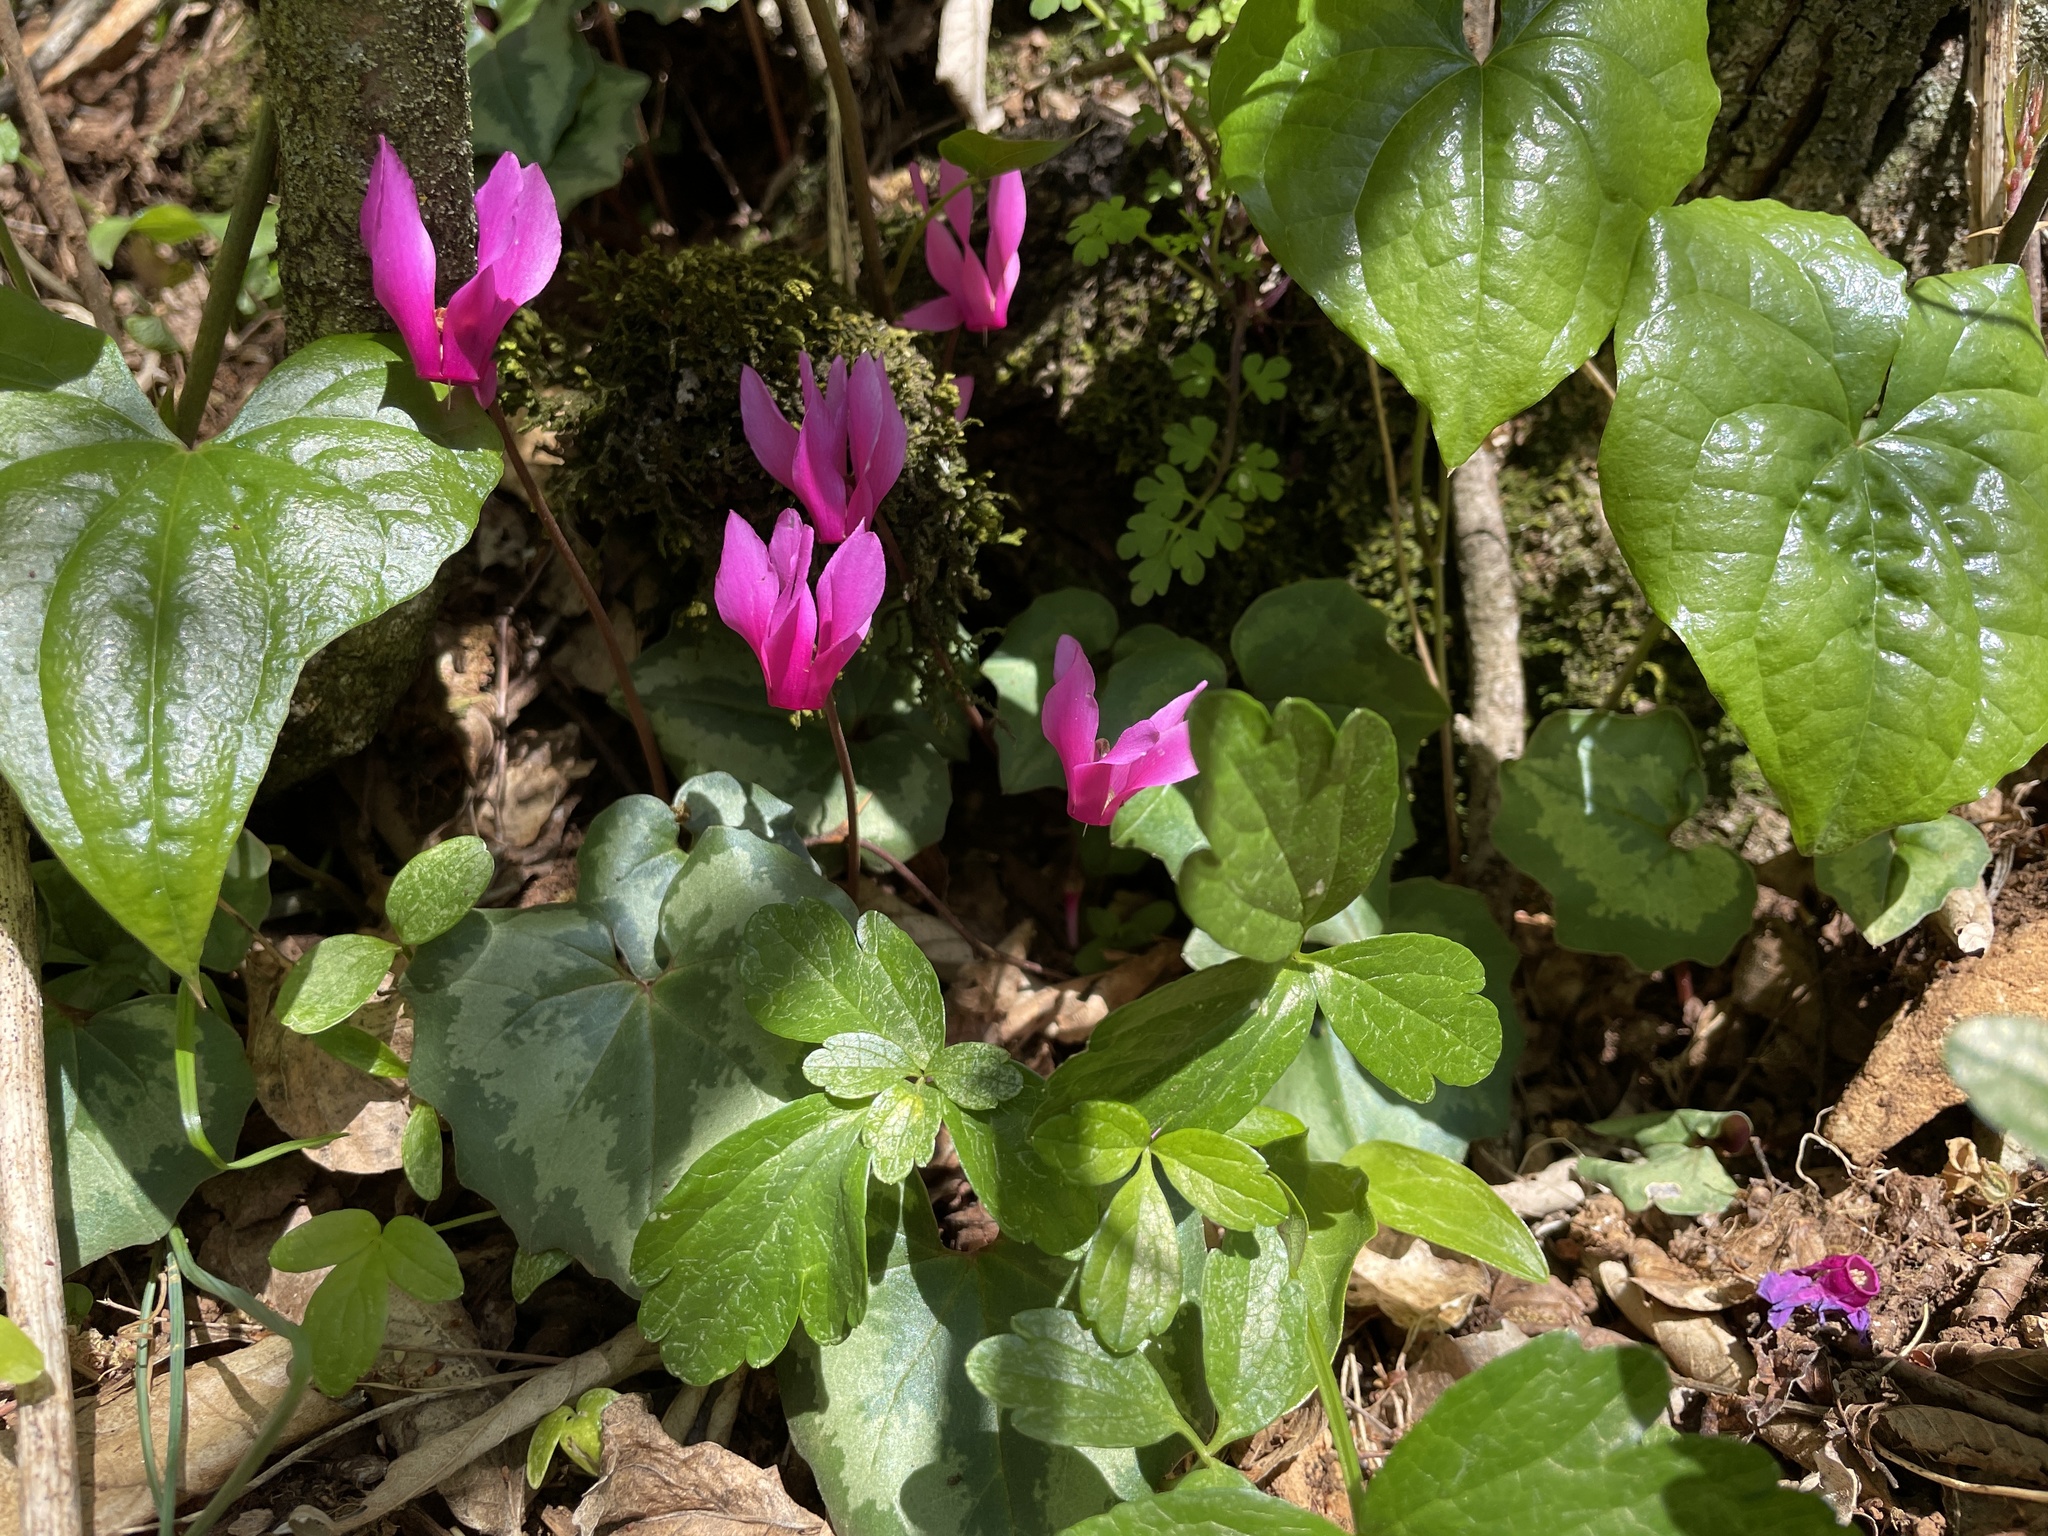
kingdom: Plantae
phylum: Tracheophyta
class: Magnoliopsida
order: Ericales
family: Primulaceae
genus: Cyclamen
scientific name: Cyclamen repandum
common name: Spring sowbread
